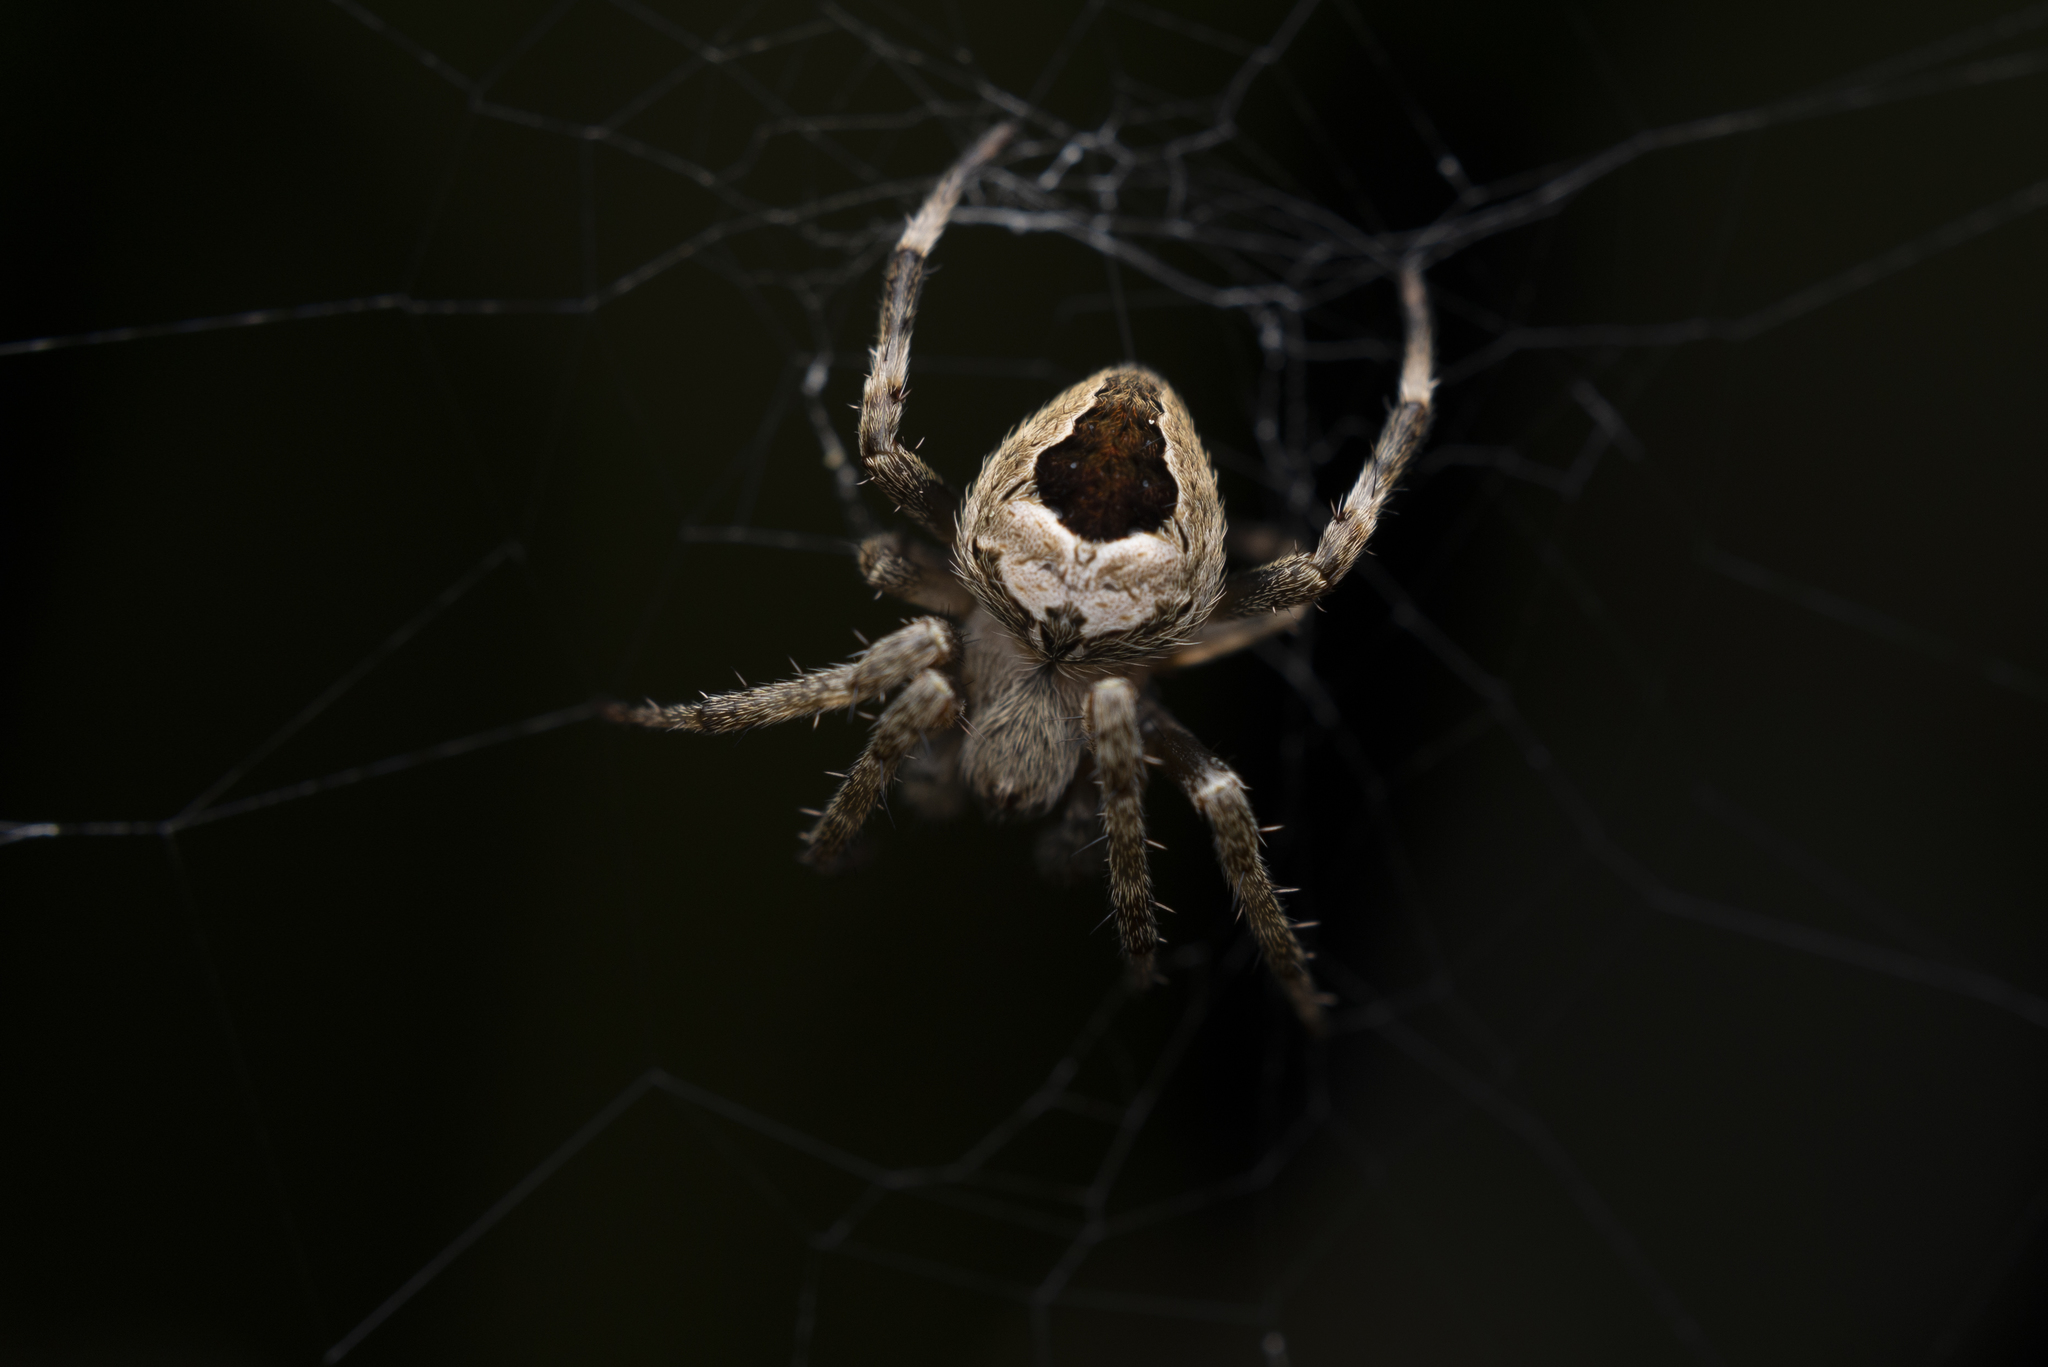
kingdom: Animalia
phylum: Arthropoda
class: Arachnida
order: Araneae
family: Araneidae
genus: Neoscona
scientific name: Neoscona vigilans
